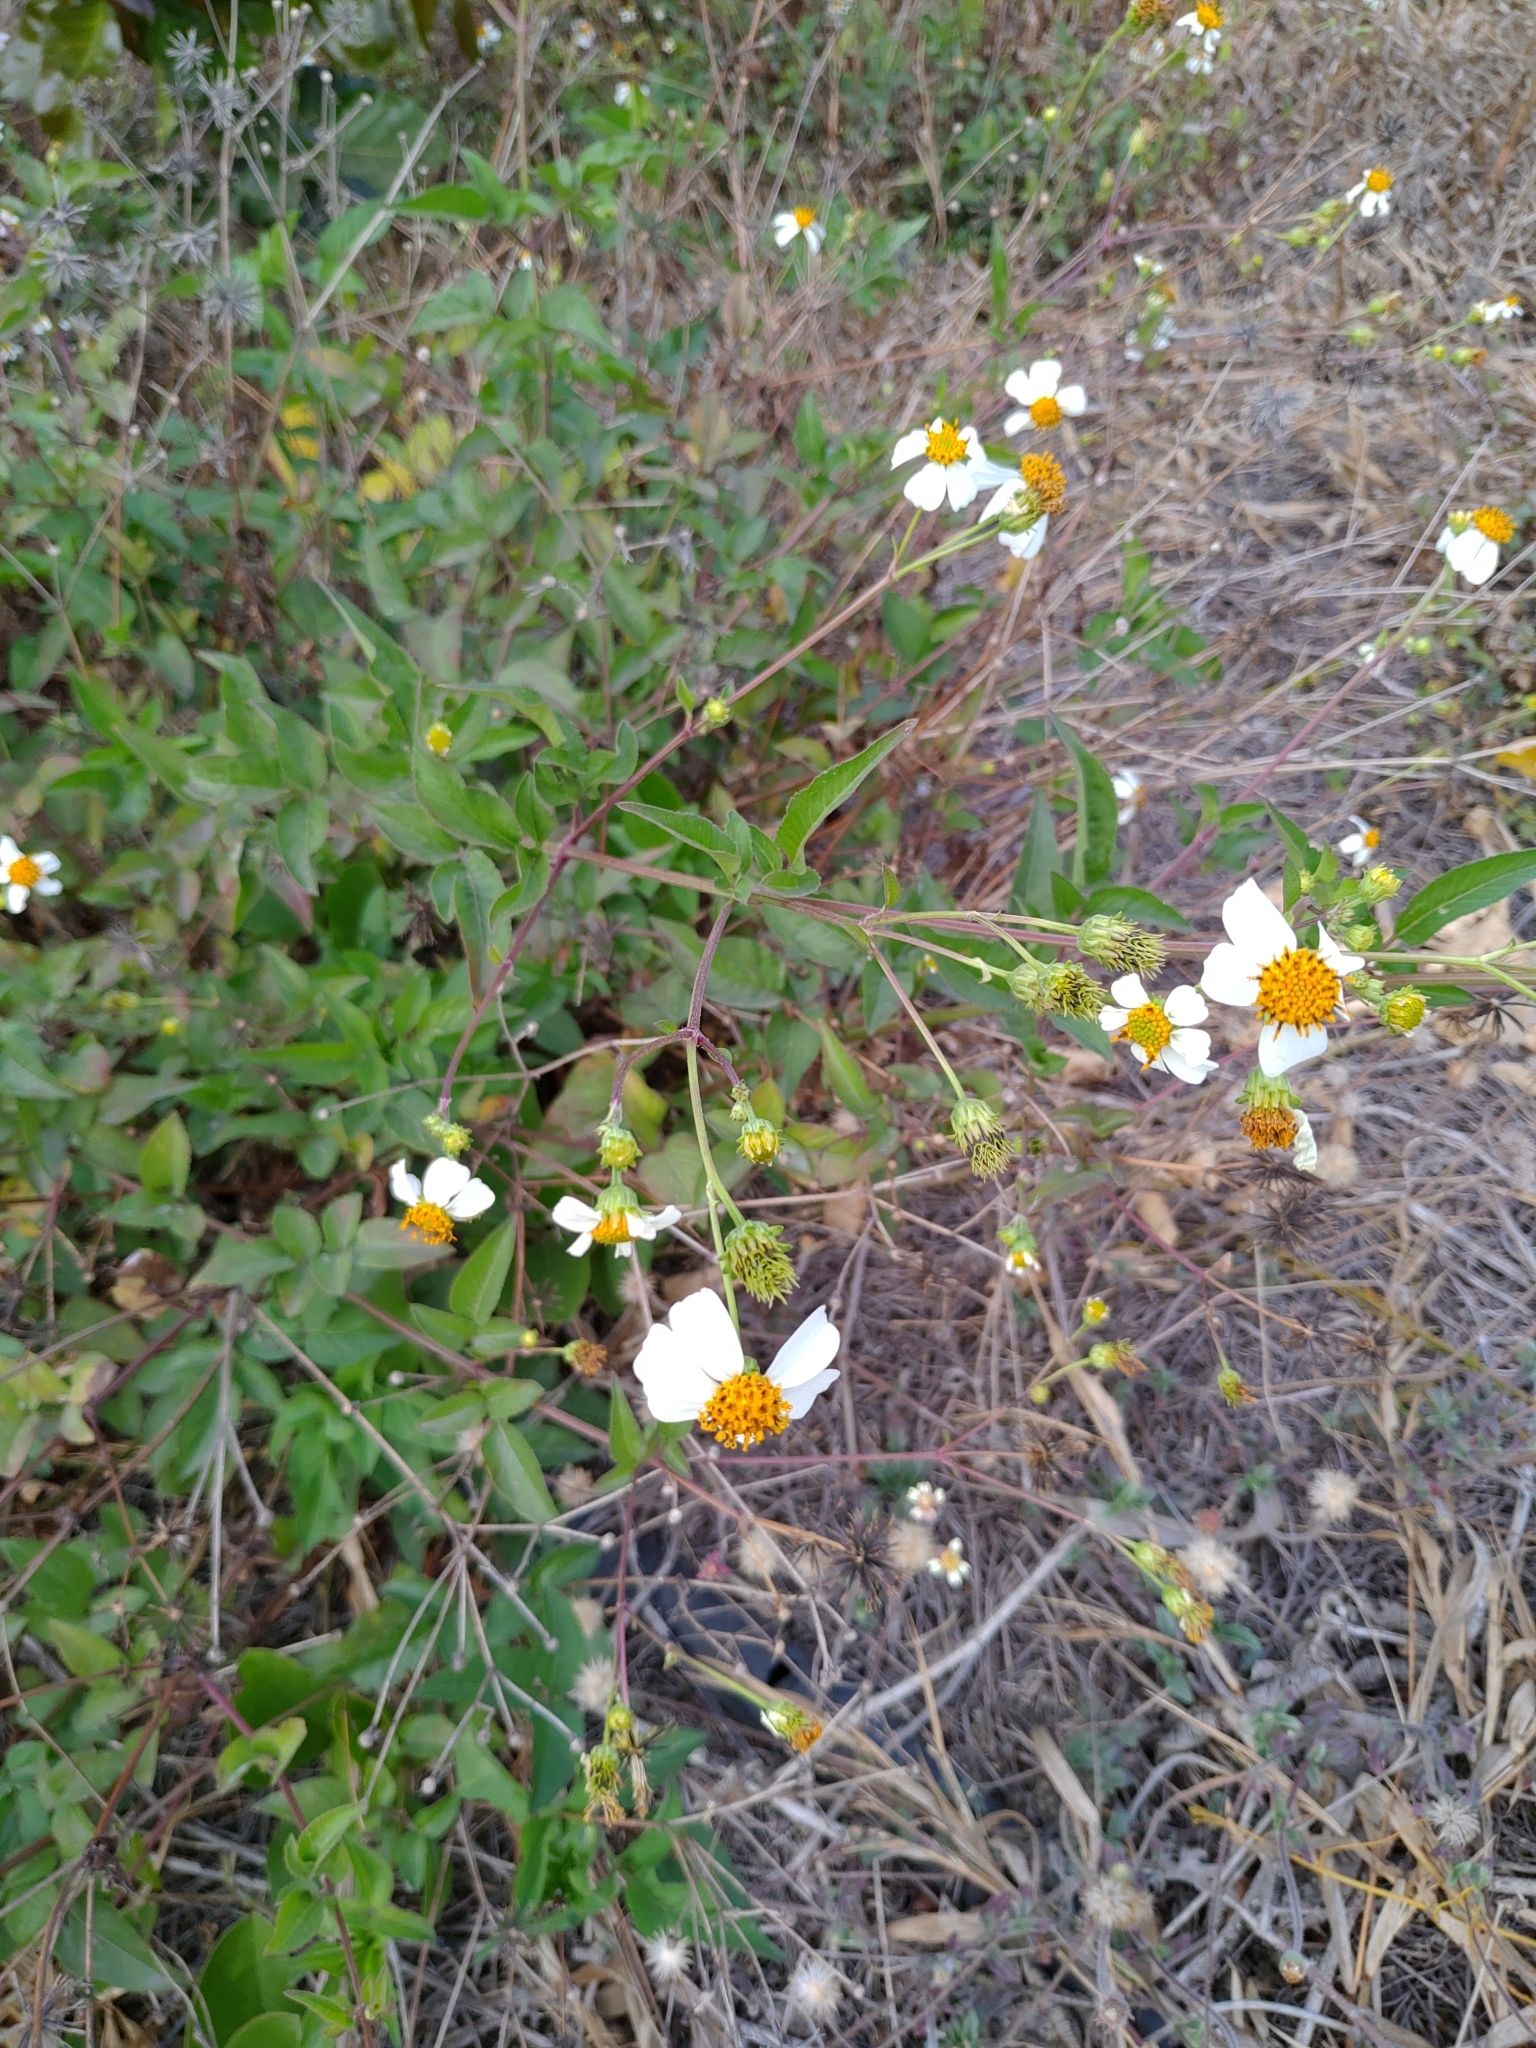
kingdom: Plantae
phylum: Tracheophyta
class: Magnoliopsida
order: Asterales
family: Asteraceae
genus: Bidens
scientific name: Bidens alba
